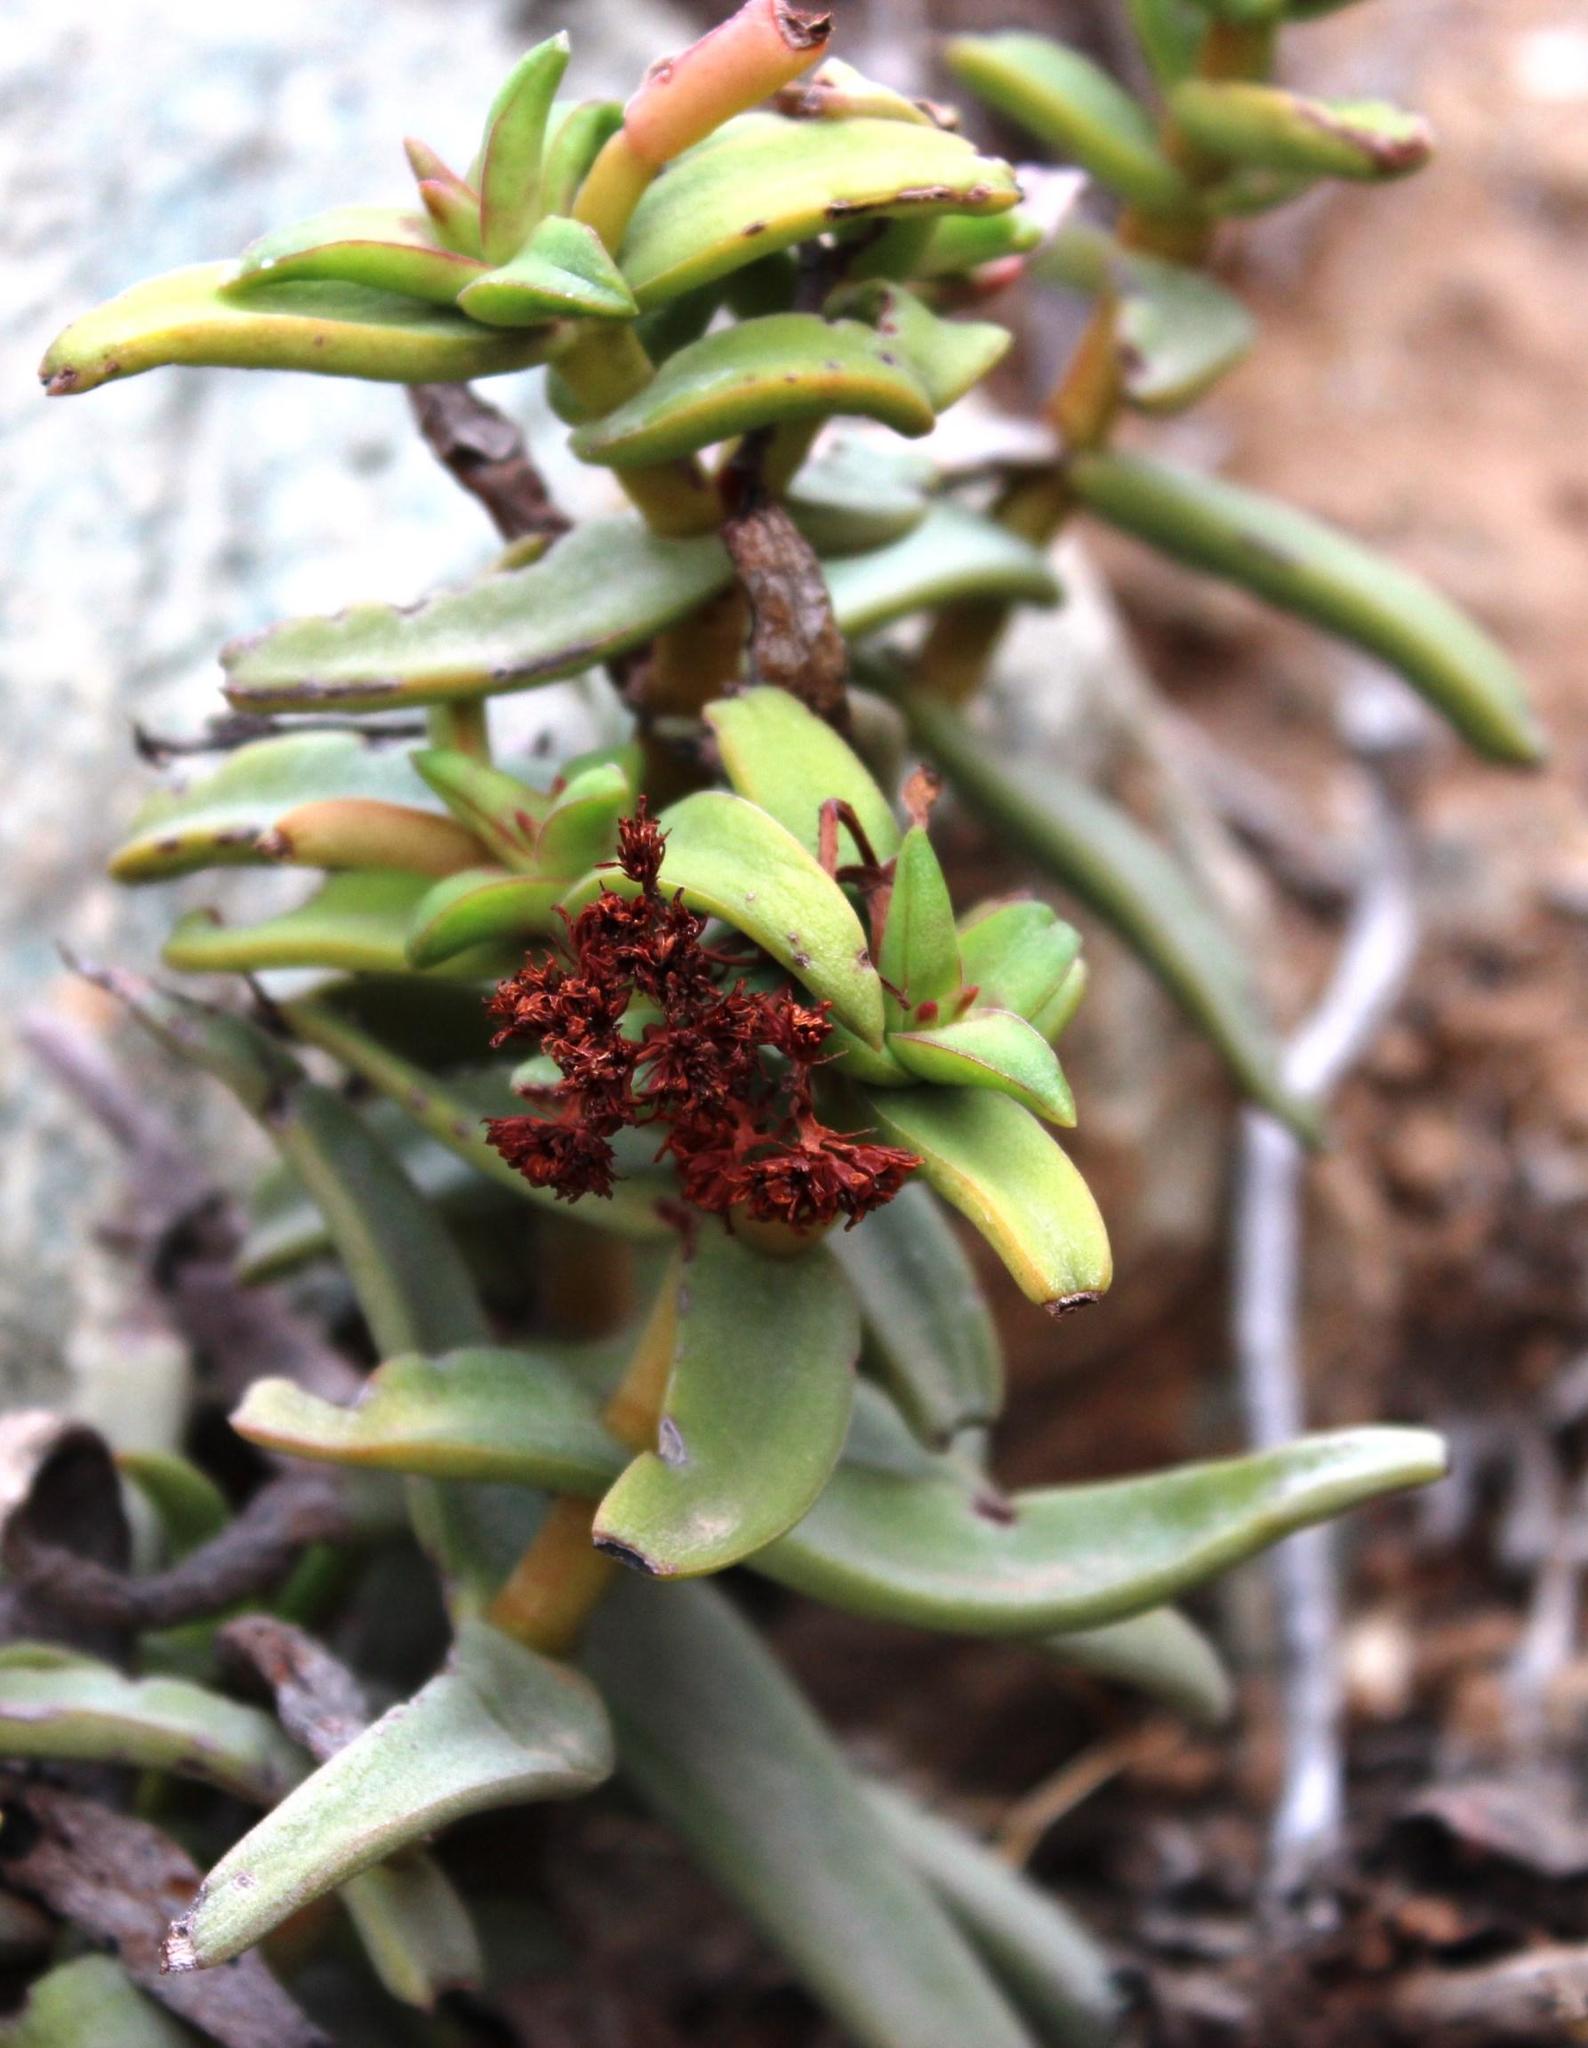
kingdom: Plantae
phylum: Tracheophyta
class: Magnoliopsida
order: Saxifragales
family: Crassulaceae
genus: Crassula
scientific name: Crassula fusca
